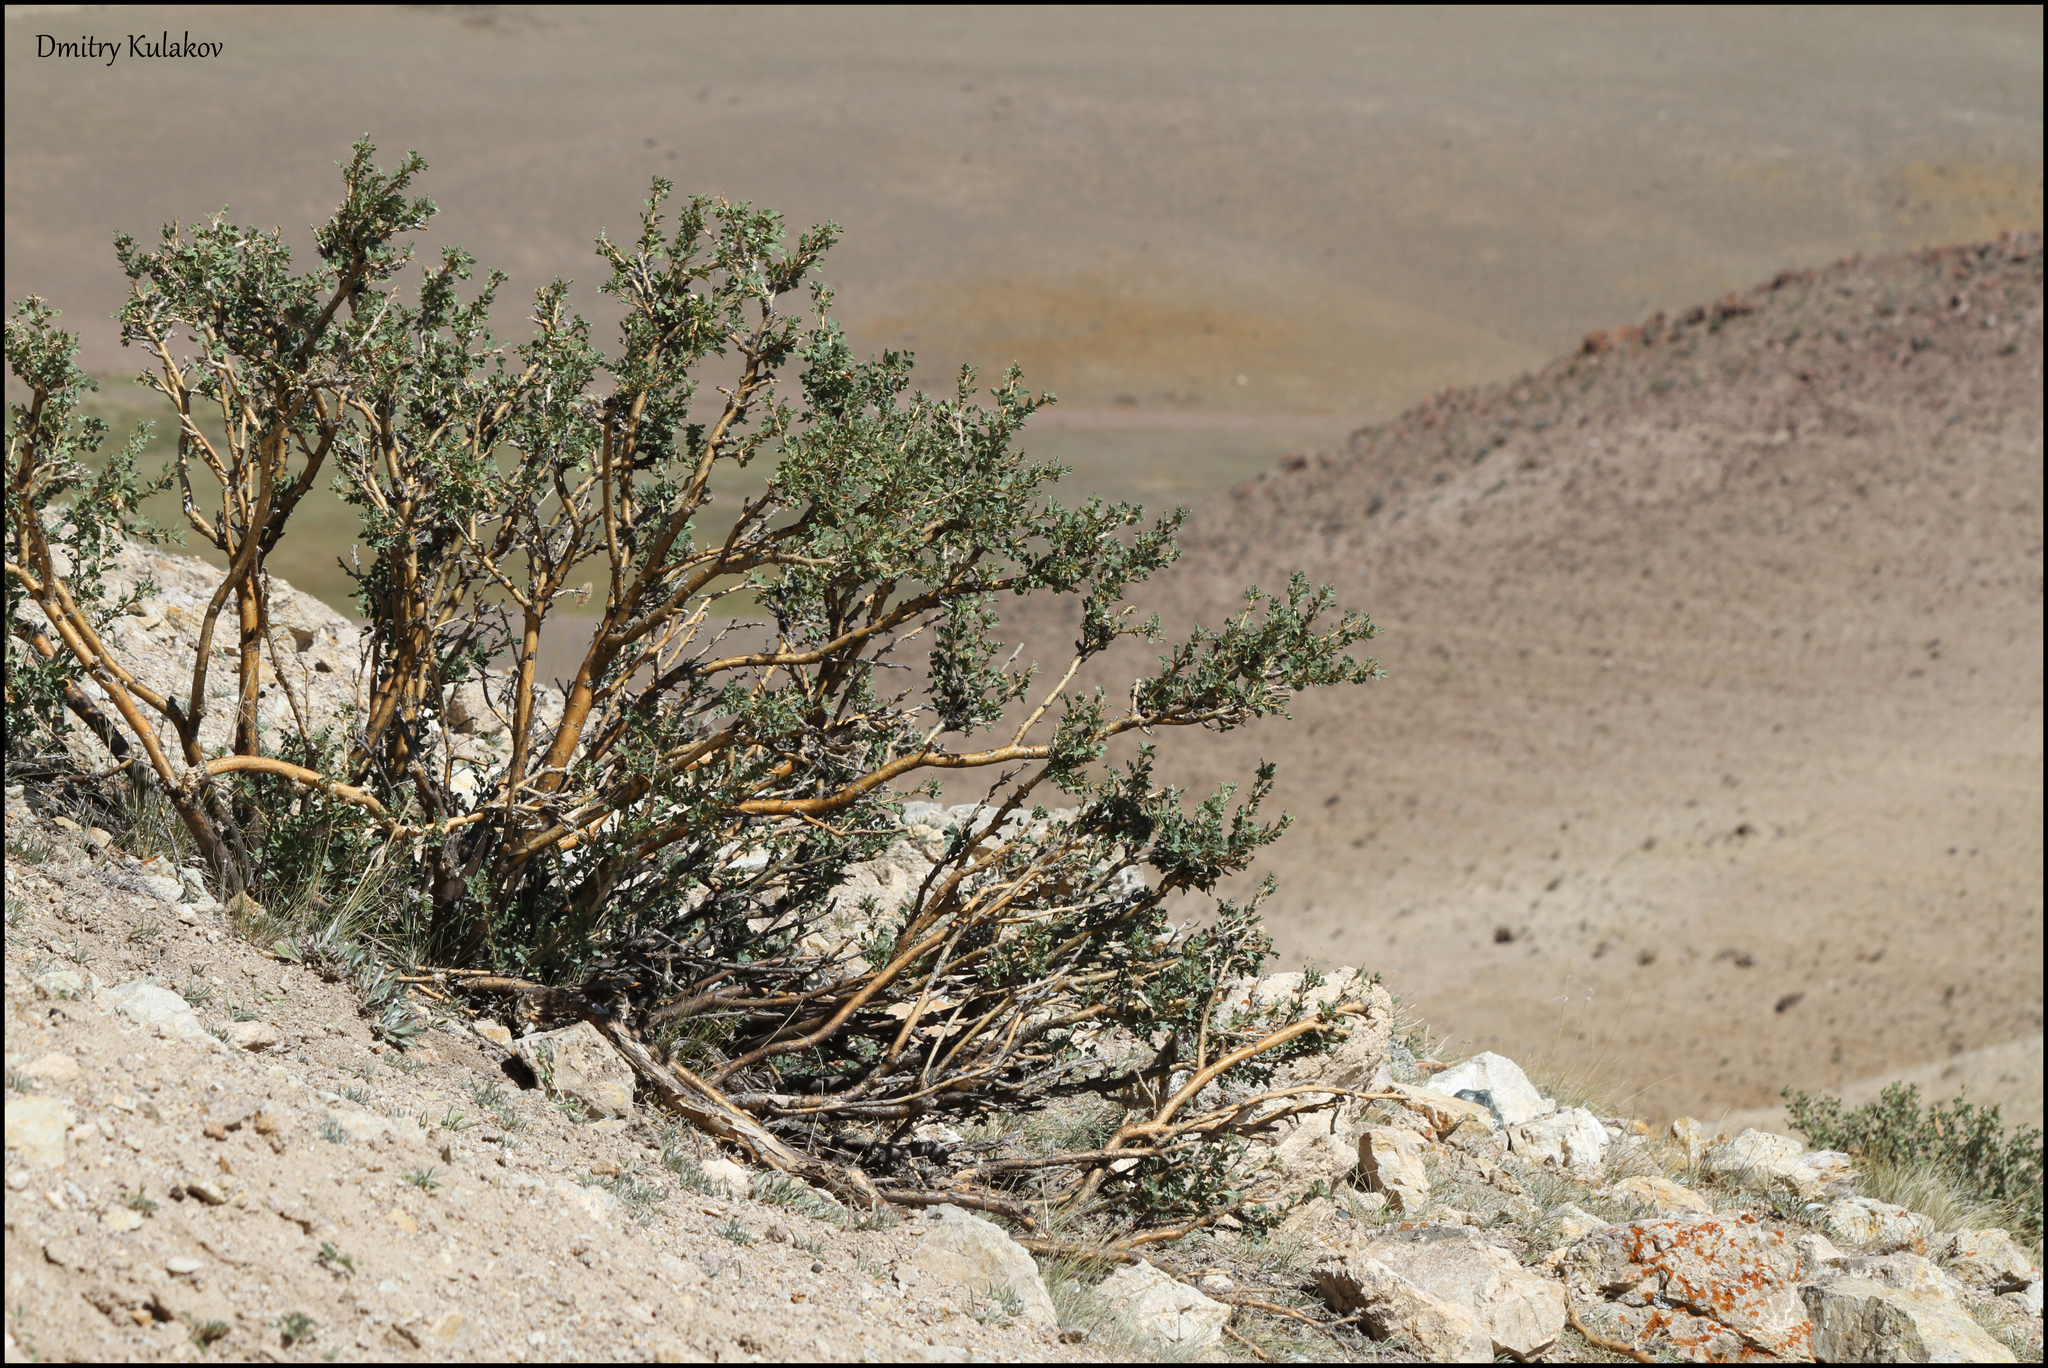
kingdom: Plantae
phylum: Tracheophyta
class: Magnoliopsida
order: Fabales
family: Fabaceae
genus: Caragana
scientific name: Caragana bungei
